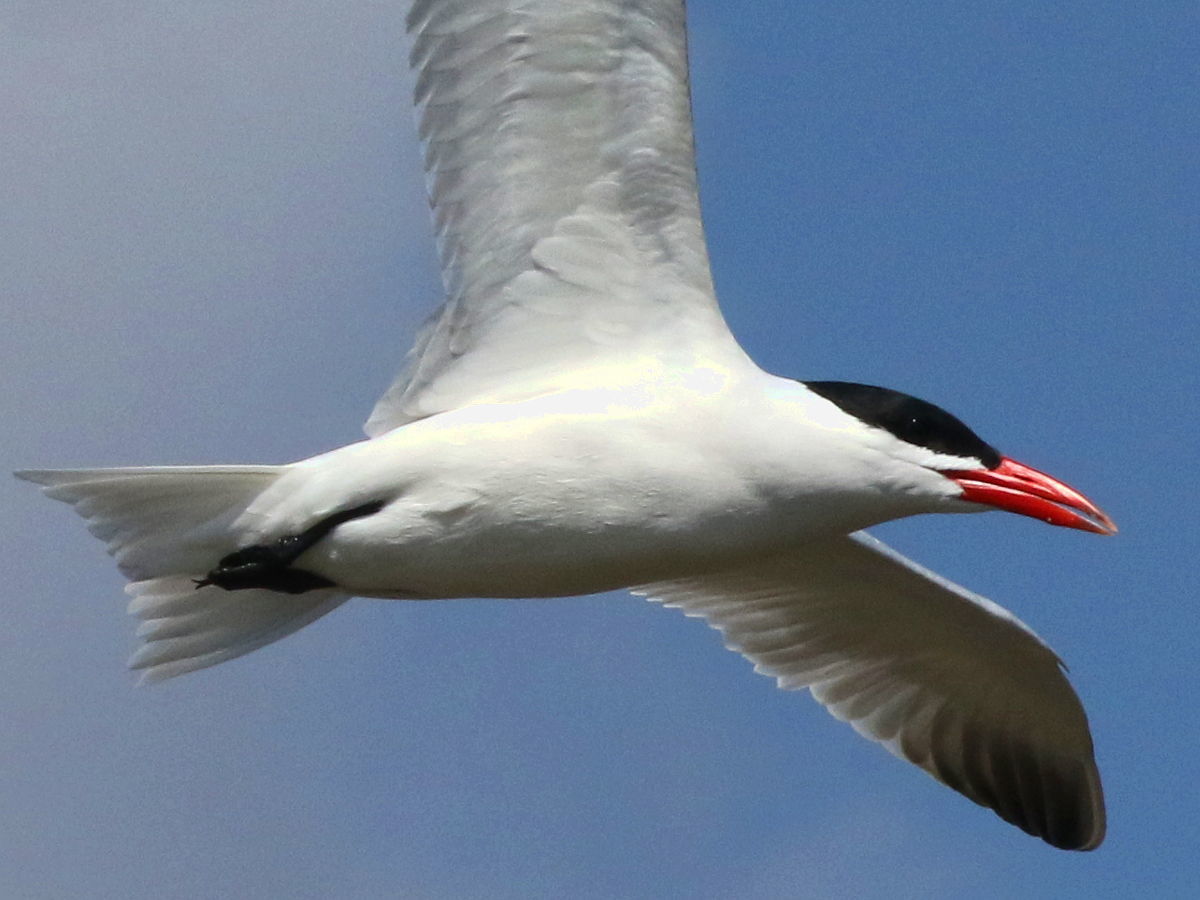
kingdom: Animalia
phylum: Chordata
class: Aves
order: Charadriiformes
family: Laridae
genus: Hydroprogne
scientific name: Hydroprogne caspia
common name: Caspian tern
